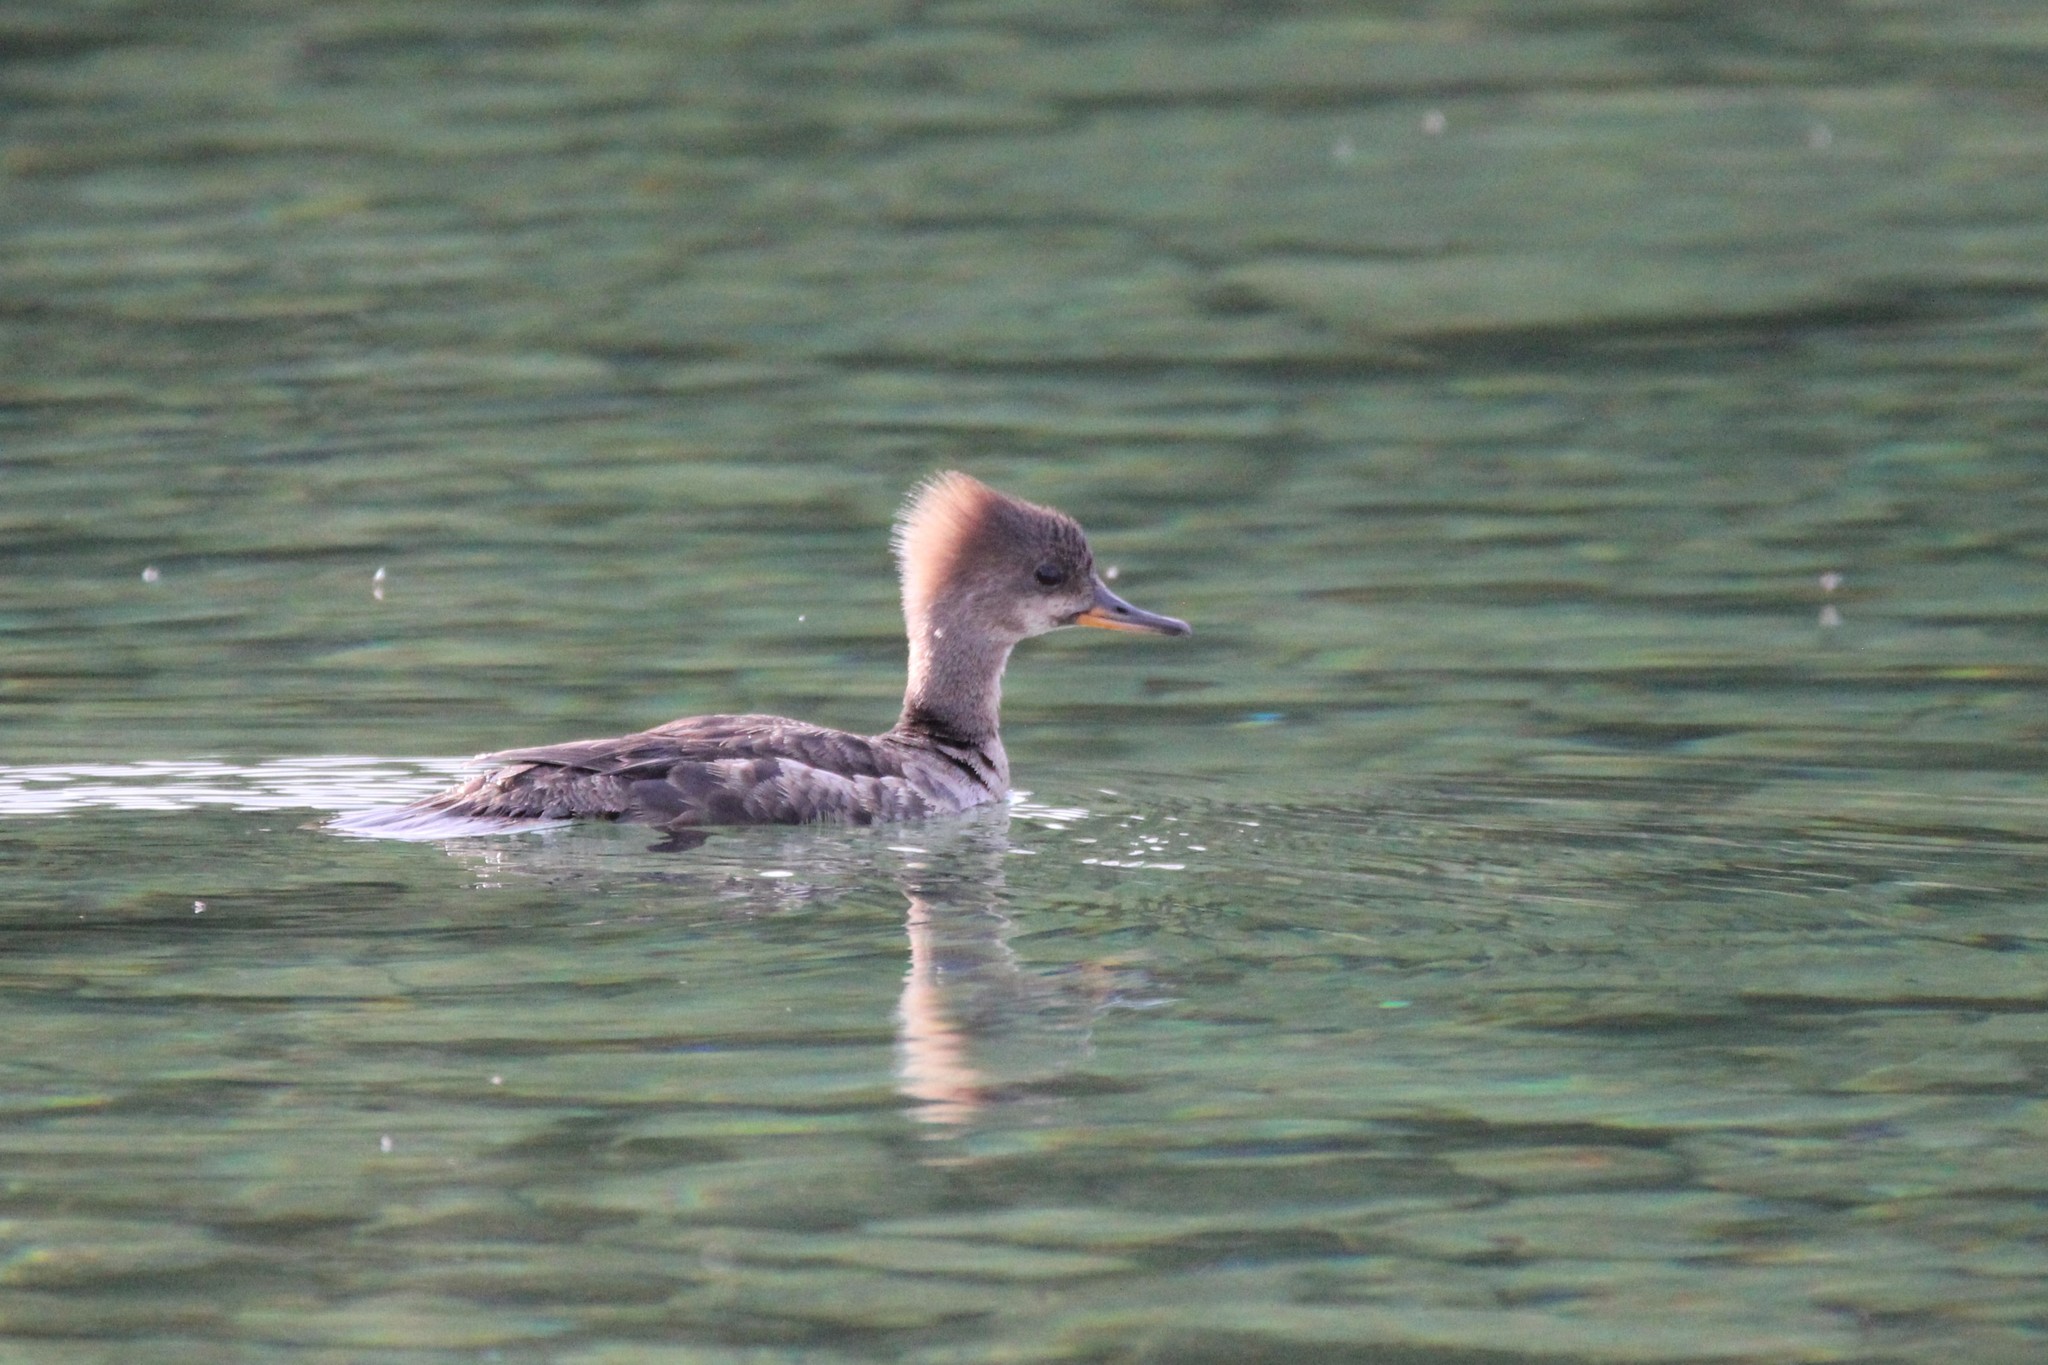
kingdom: Animalia
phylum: Chordata
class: Aves
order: Anseriformes
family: Anatidae
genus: Lophodytes
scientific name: Lophodytes cucullatus
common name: Hooded merganser
